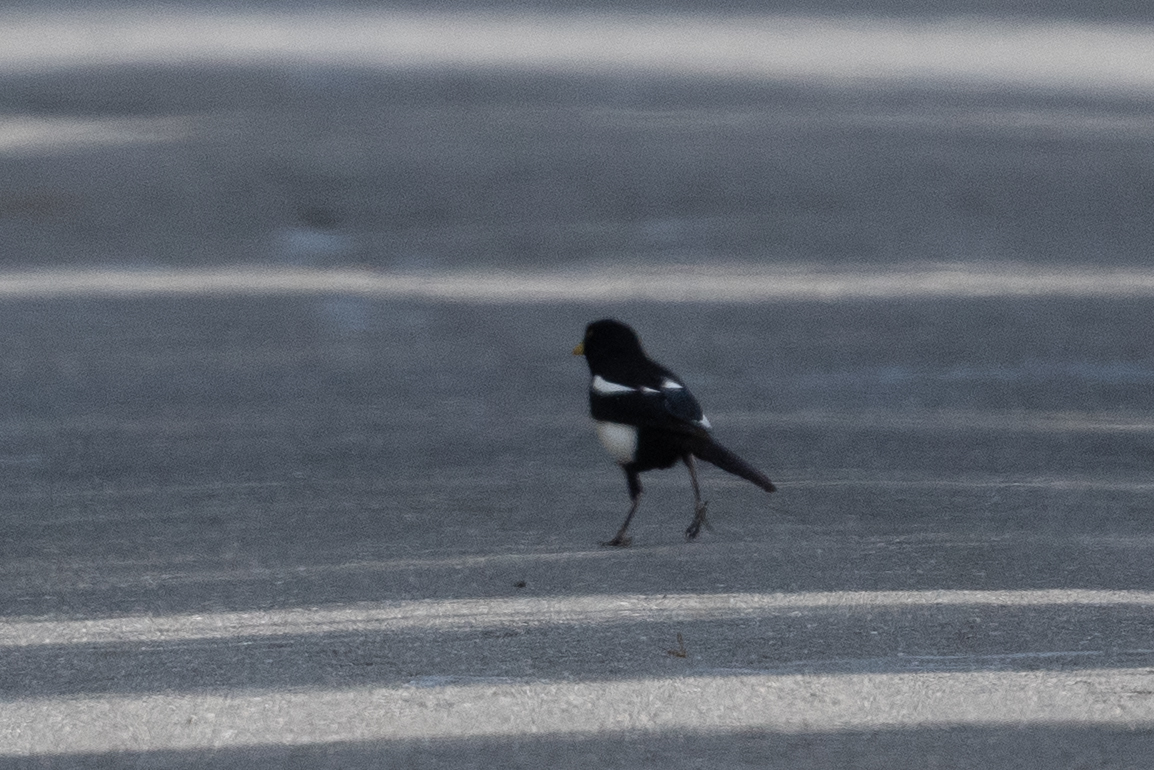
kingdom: Animalia
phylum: Chordata
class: Aves
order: Passeriformes
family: Corvidae
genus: Pica
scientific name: Pica nuttalli
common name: Yellow-billed magpie
